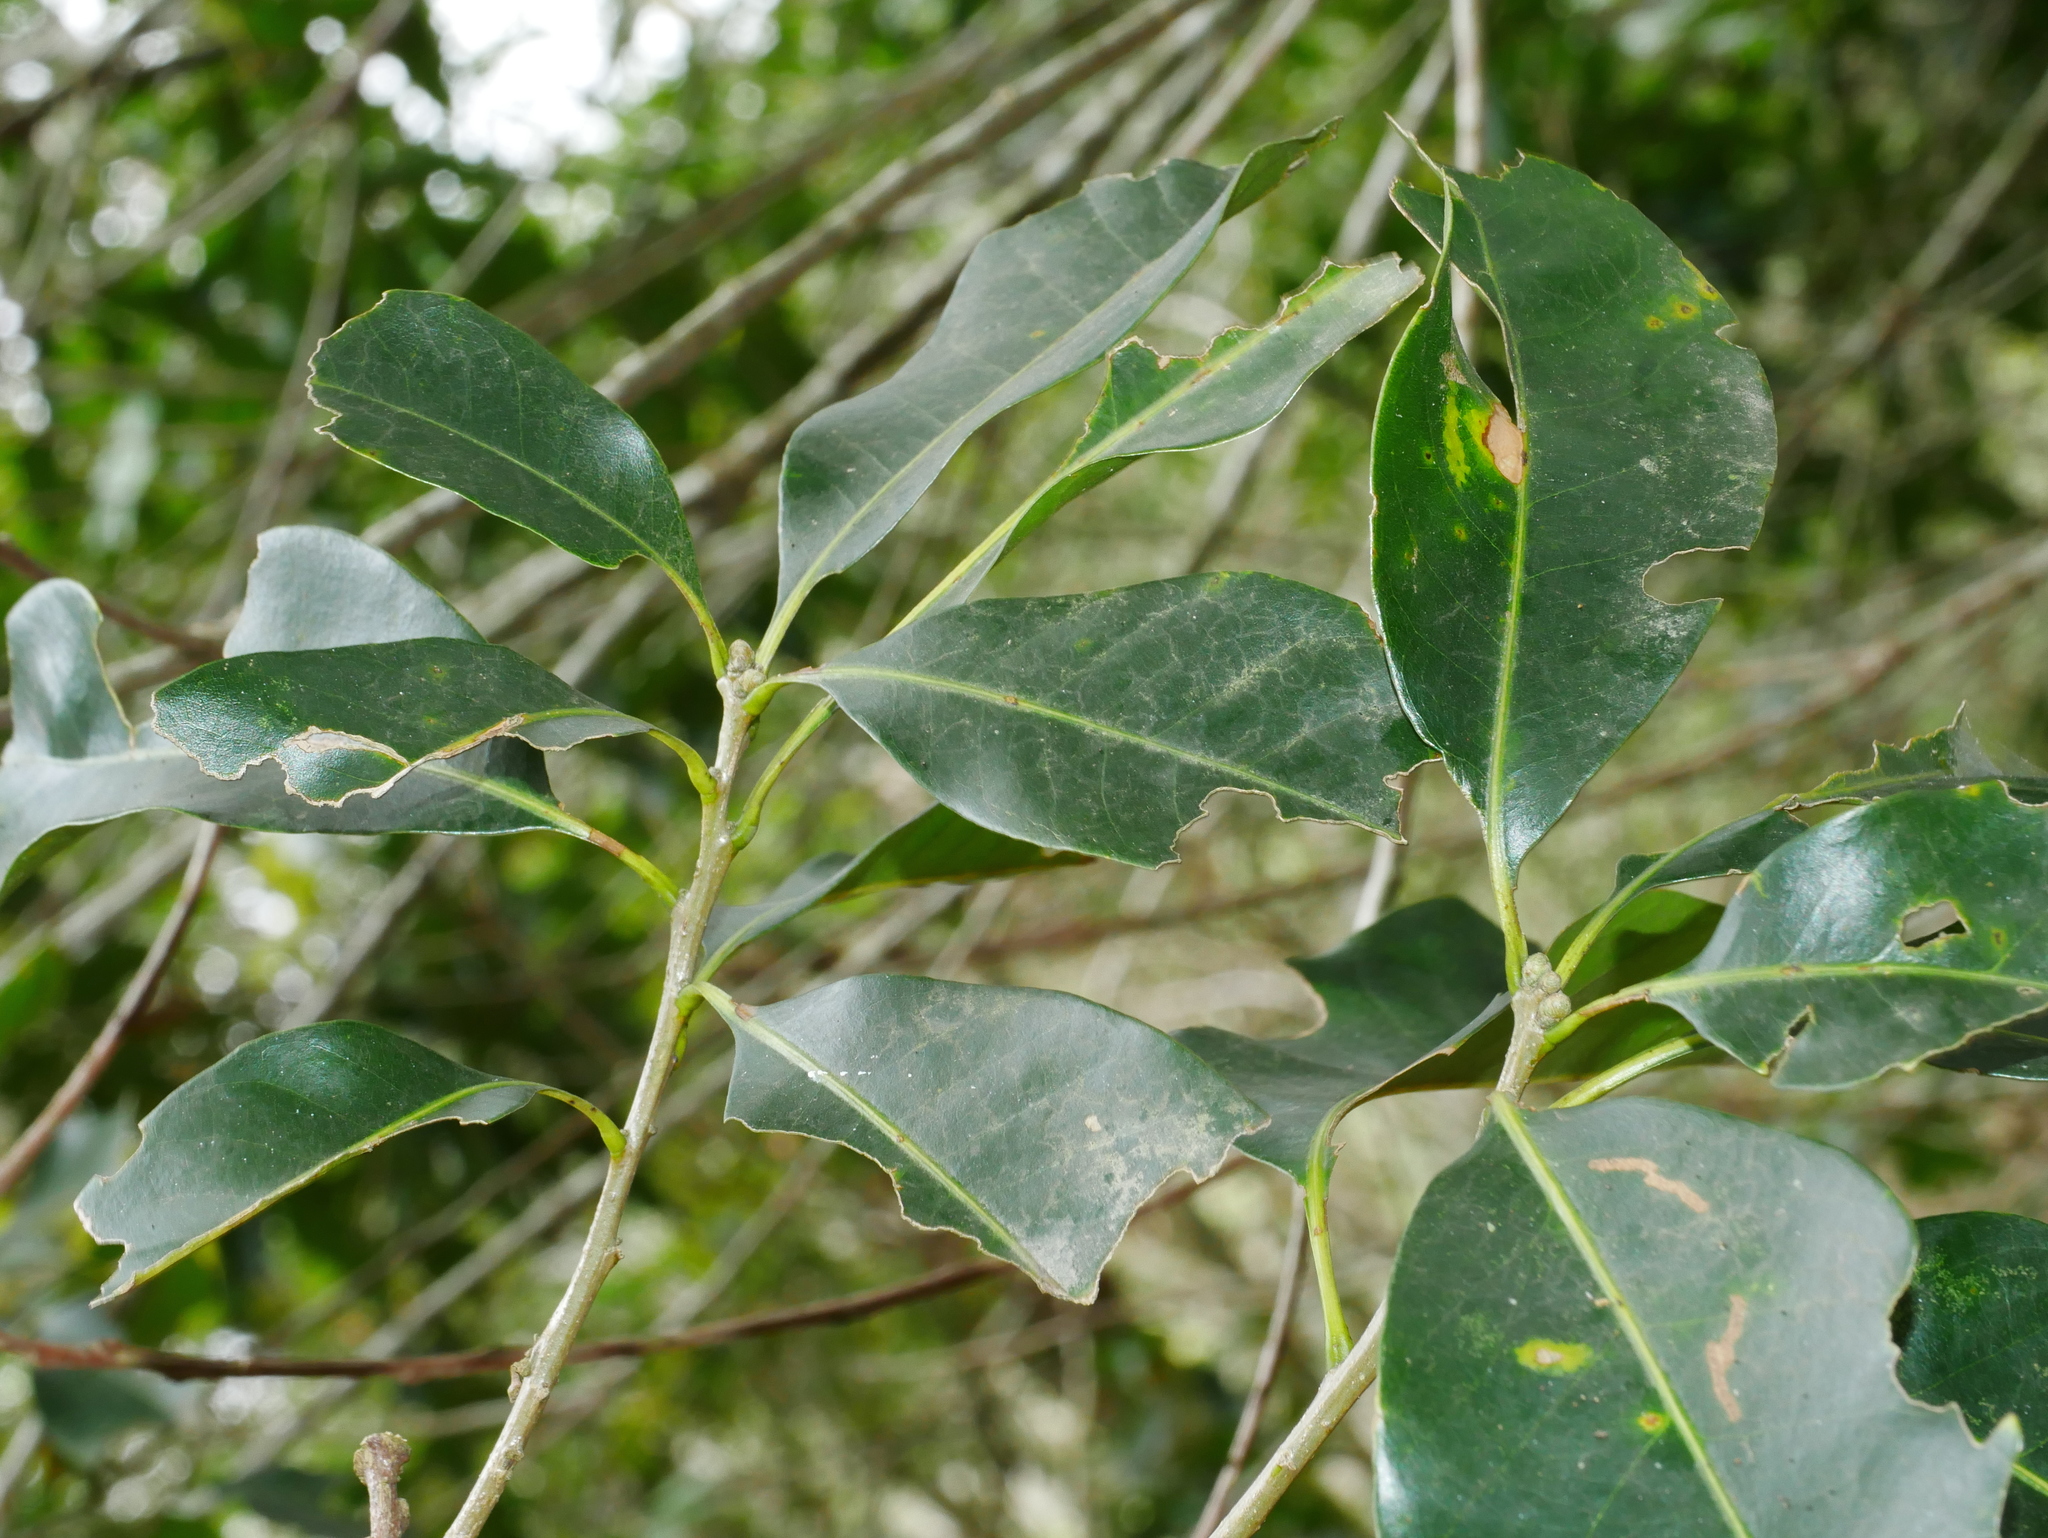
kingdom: Plantae
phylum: Tracheophyta
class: Magnoliopsida
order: Fagales
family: Fagaceae
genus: Lithocarpus
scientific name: Lithocarpus hancei
